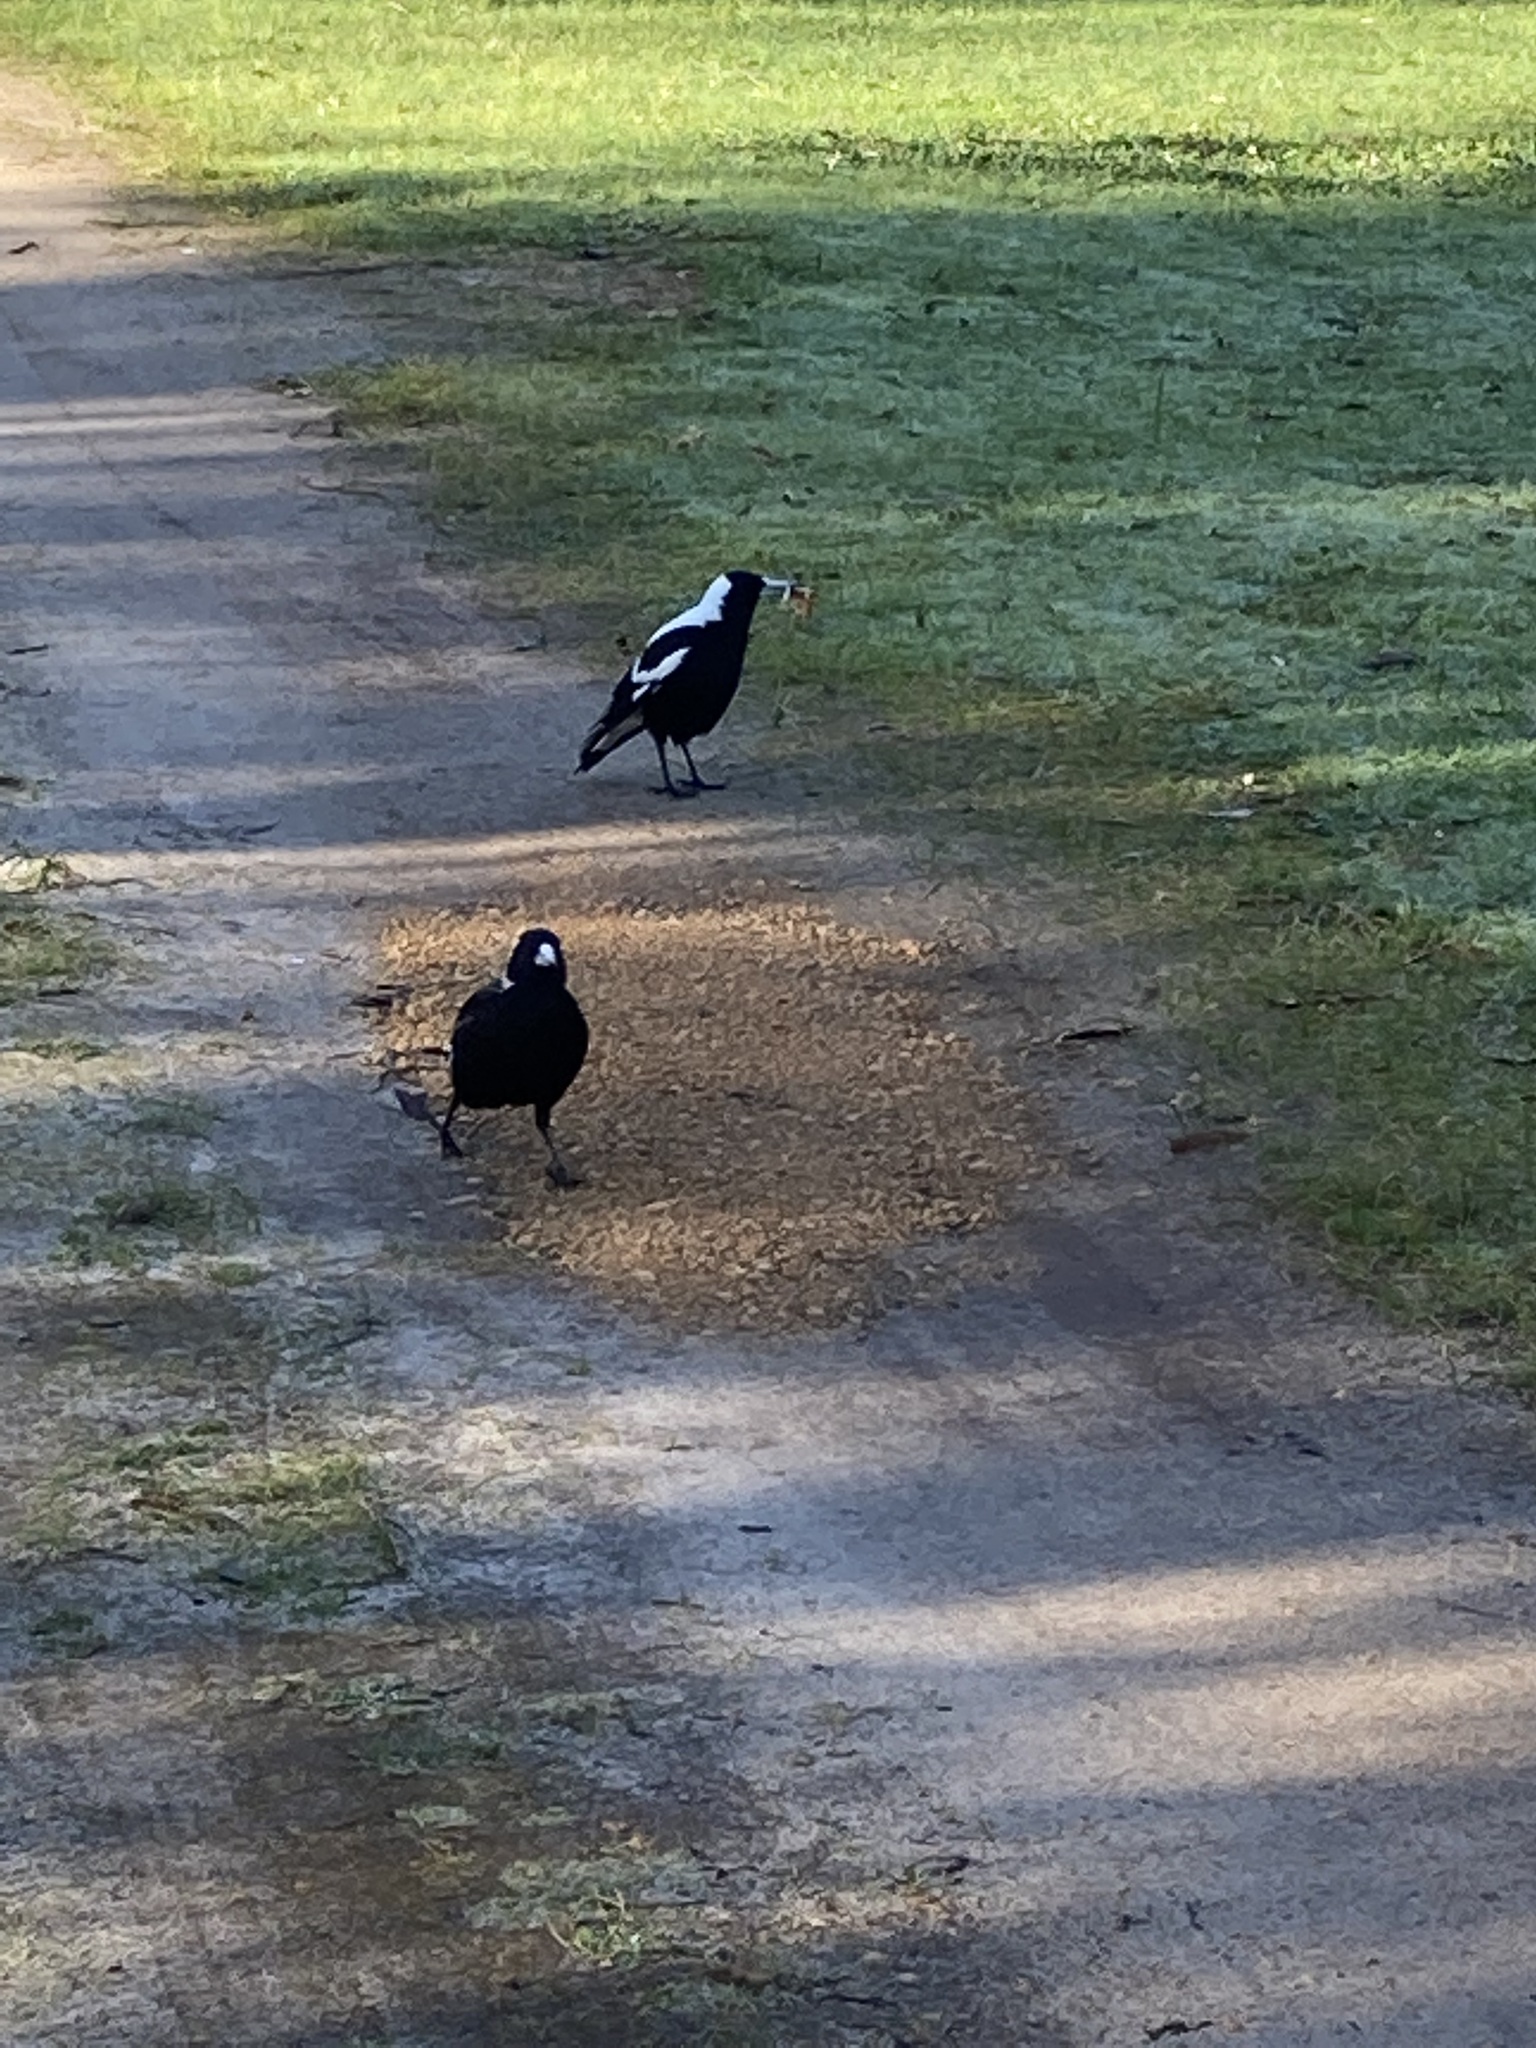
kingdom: Animalia
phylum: Chordata
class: Aves
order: Passeriformes
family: Cracticidae
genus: Gymnorhina
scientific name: Gymnorhina tibicen
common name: Australian magpie
